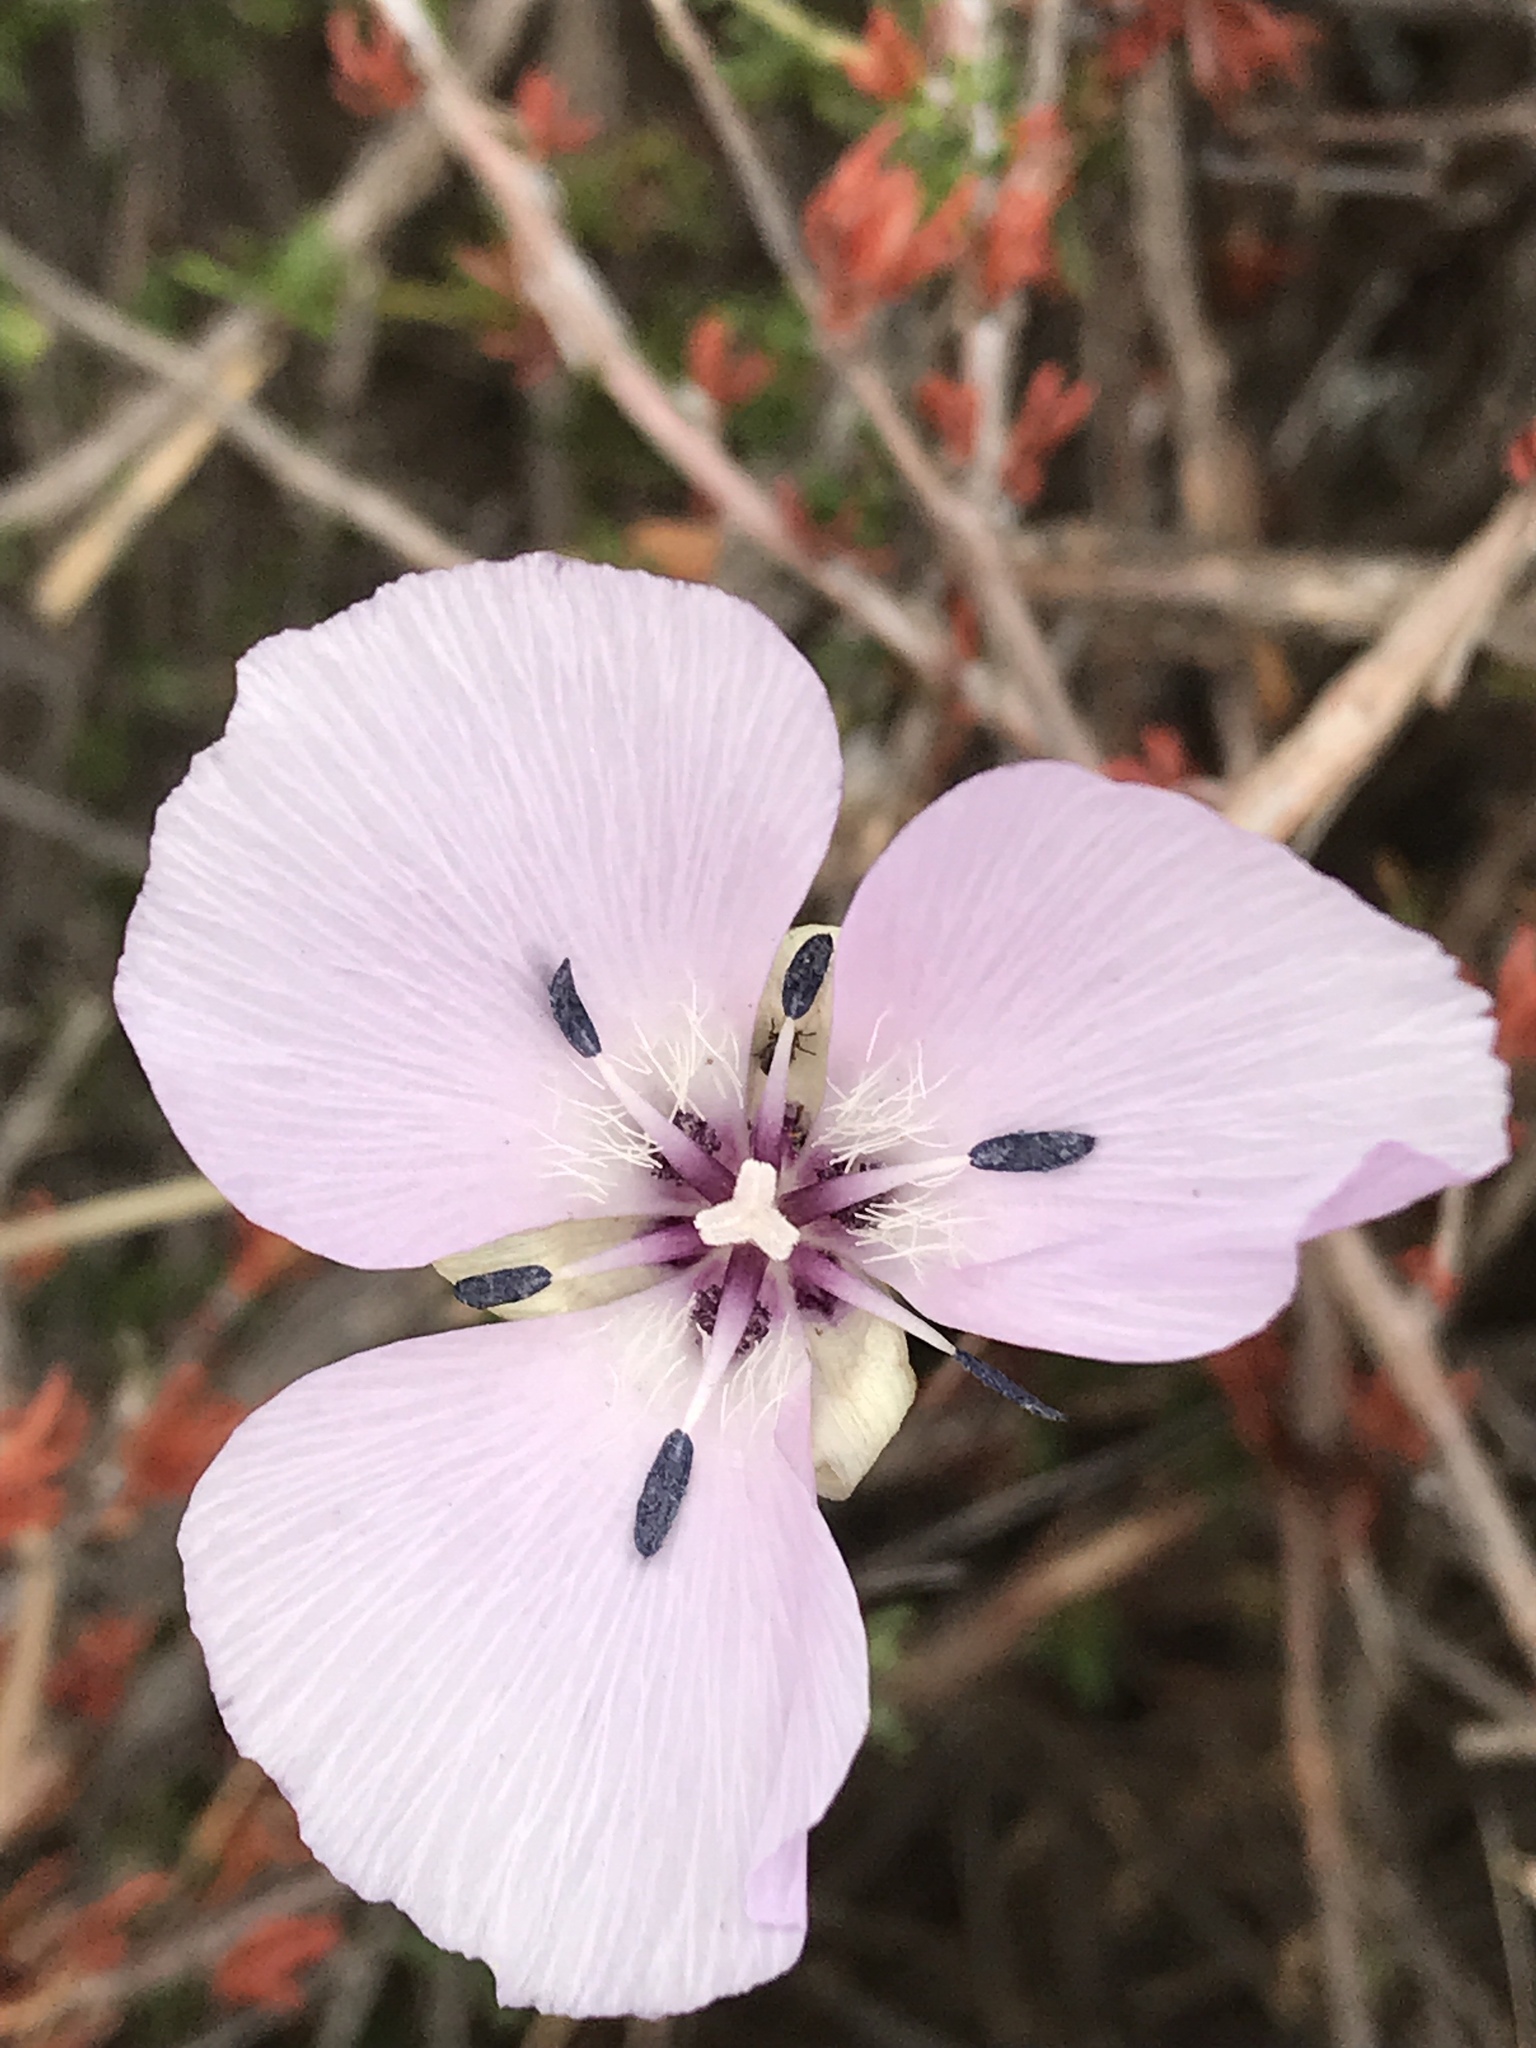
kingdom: Plantae
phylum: Tracheophyta
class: Liliopsida
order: Liliales
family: Liliaceae
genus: Calochortus
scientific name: Calochortus splendens
